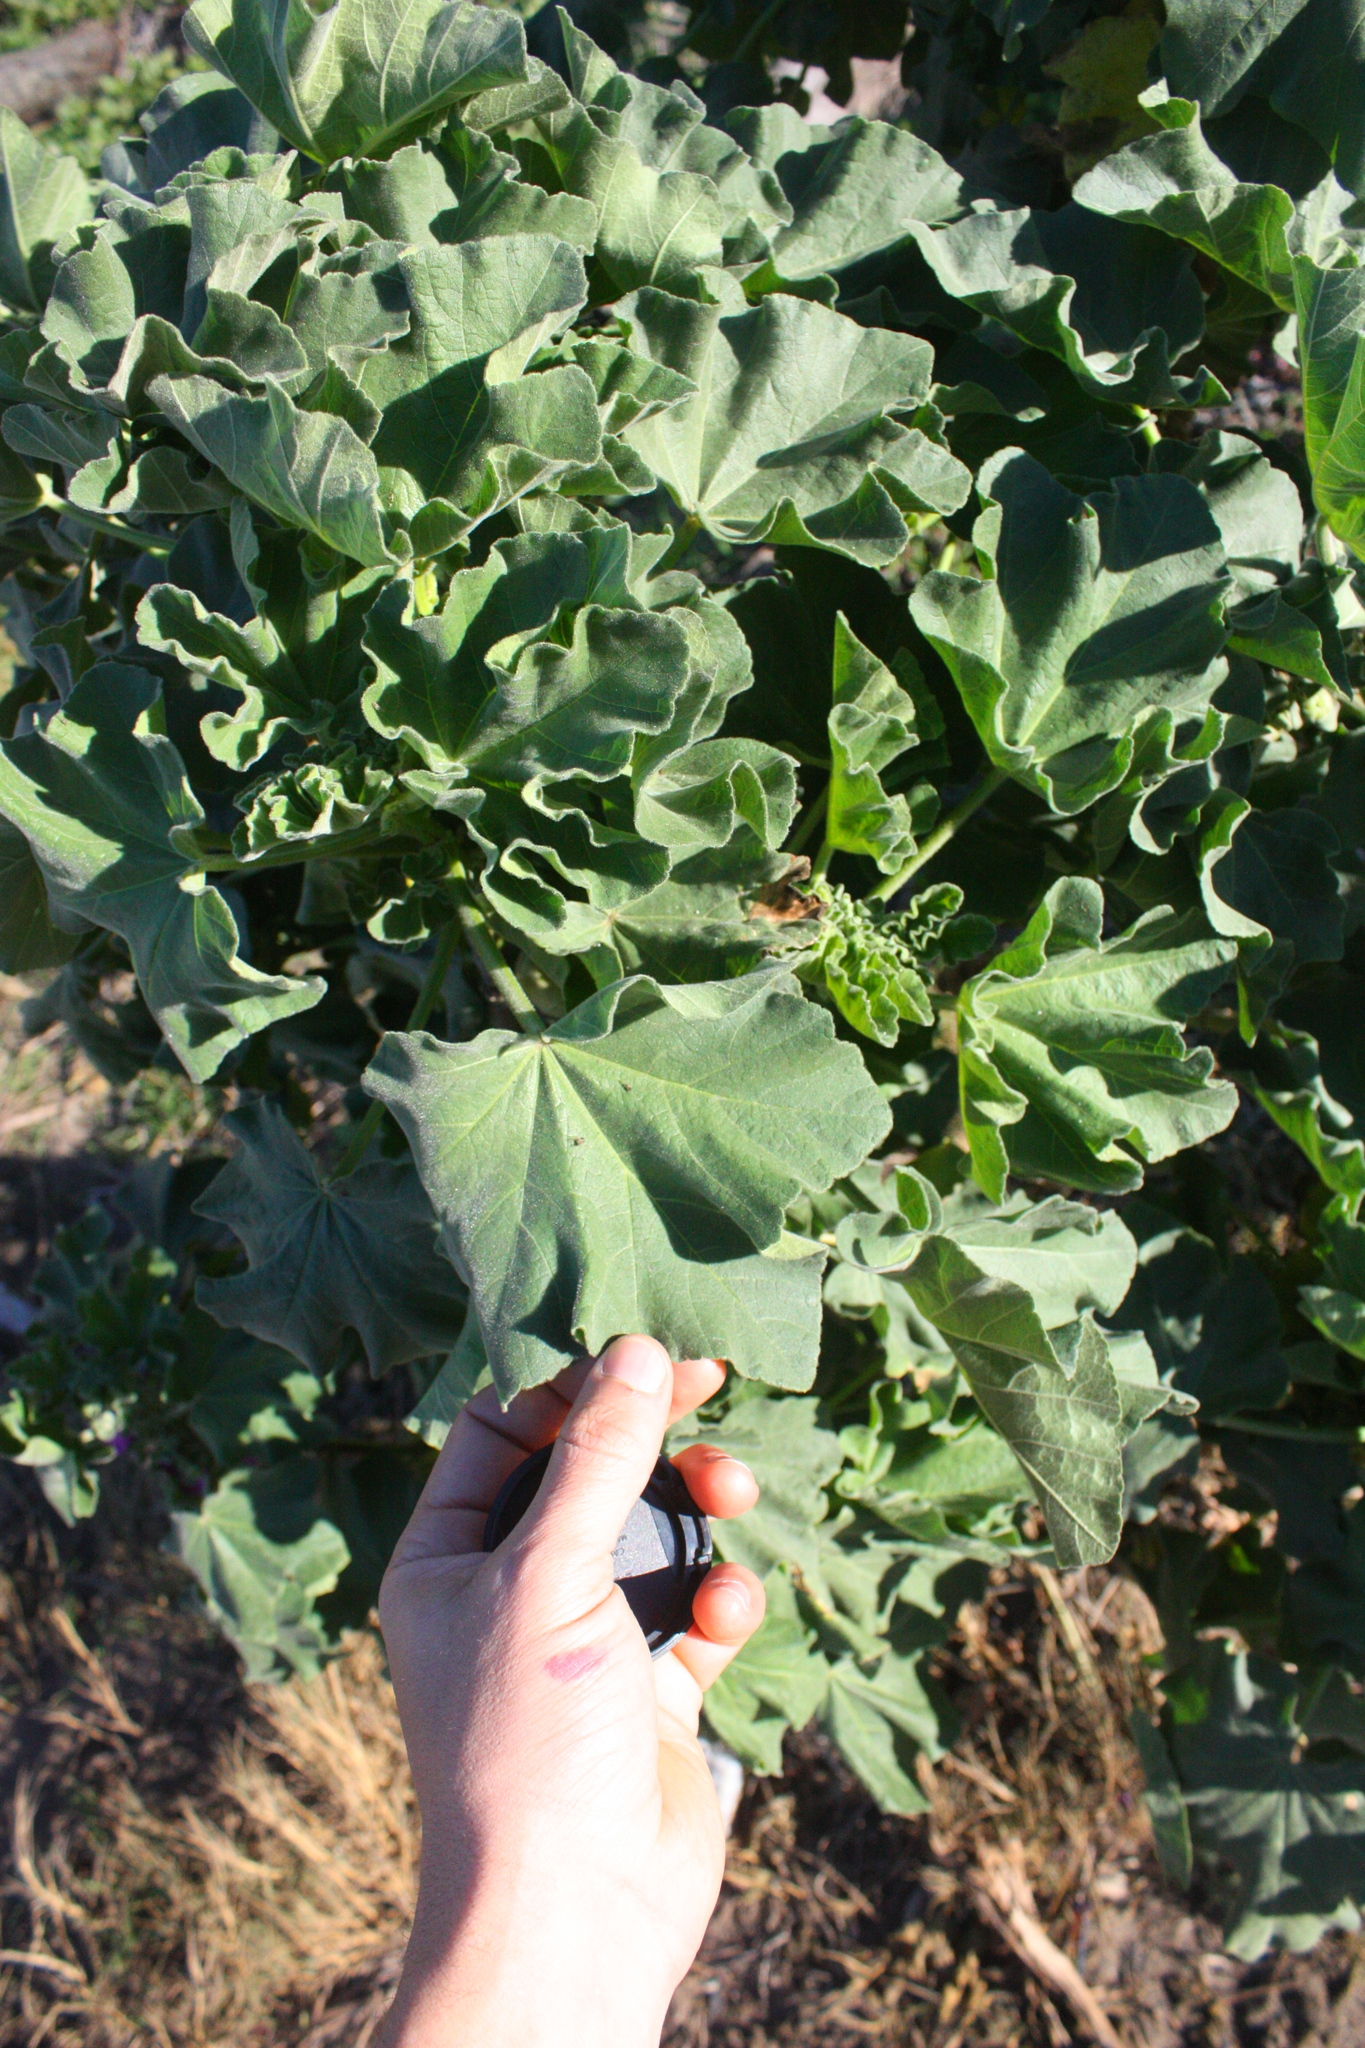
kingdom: Plantae
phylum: Tracheophyta
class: Magnoliopsida
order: Malvales
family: Malvaceae
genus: Malva
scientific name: Malva arborea
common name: Tree mallow
